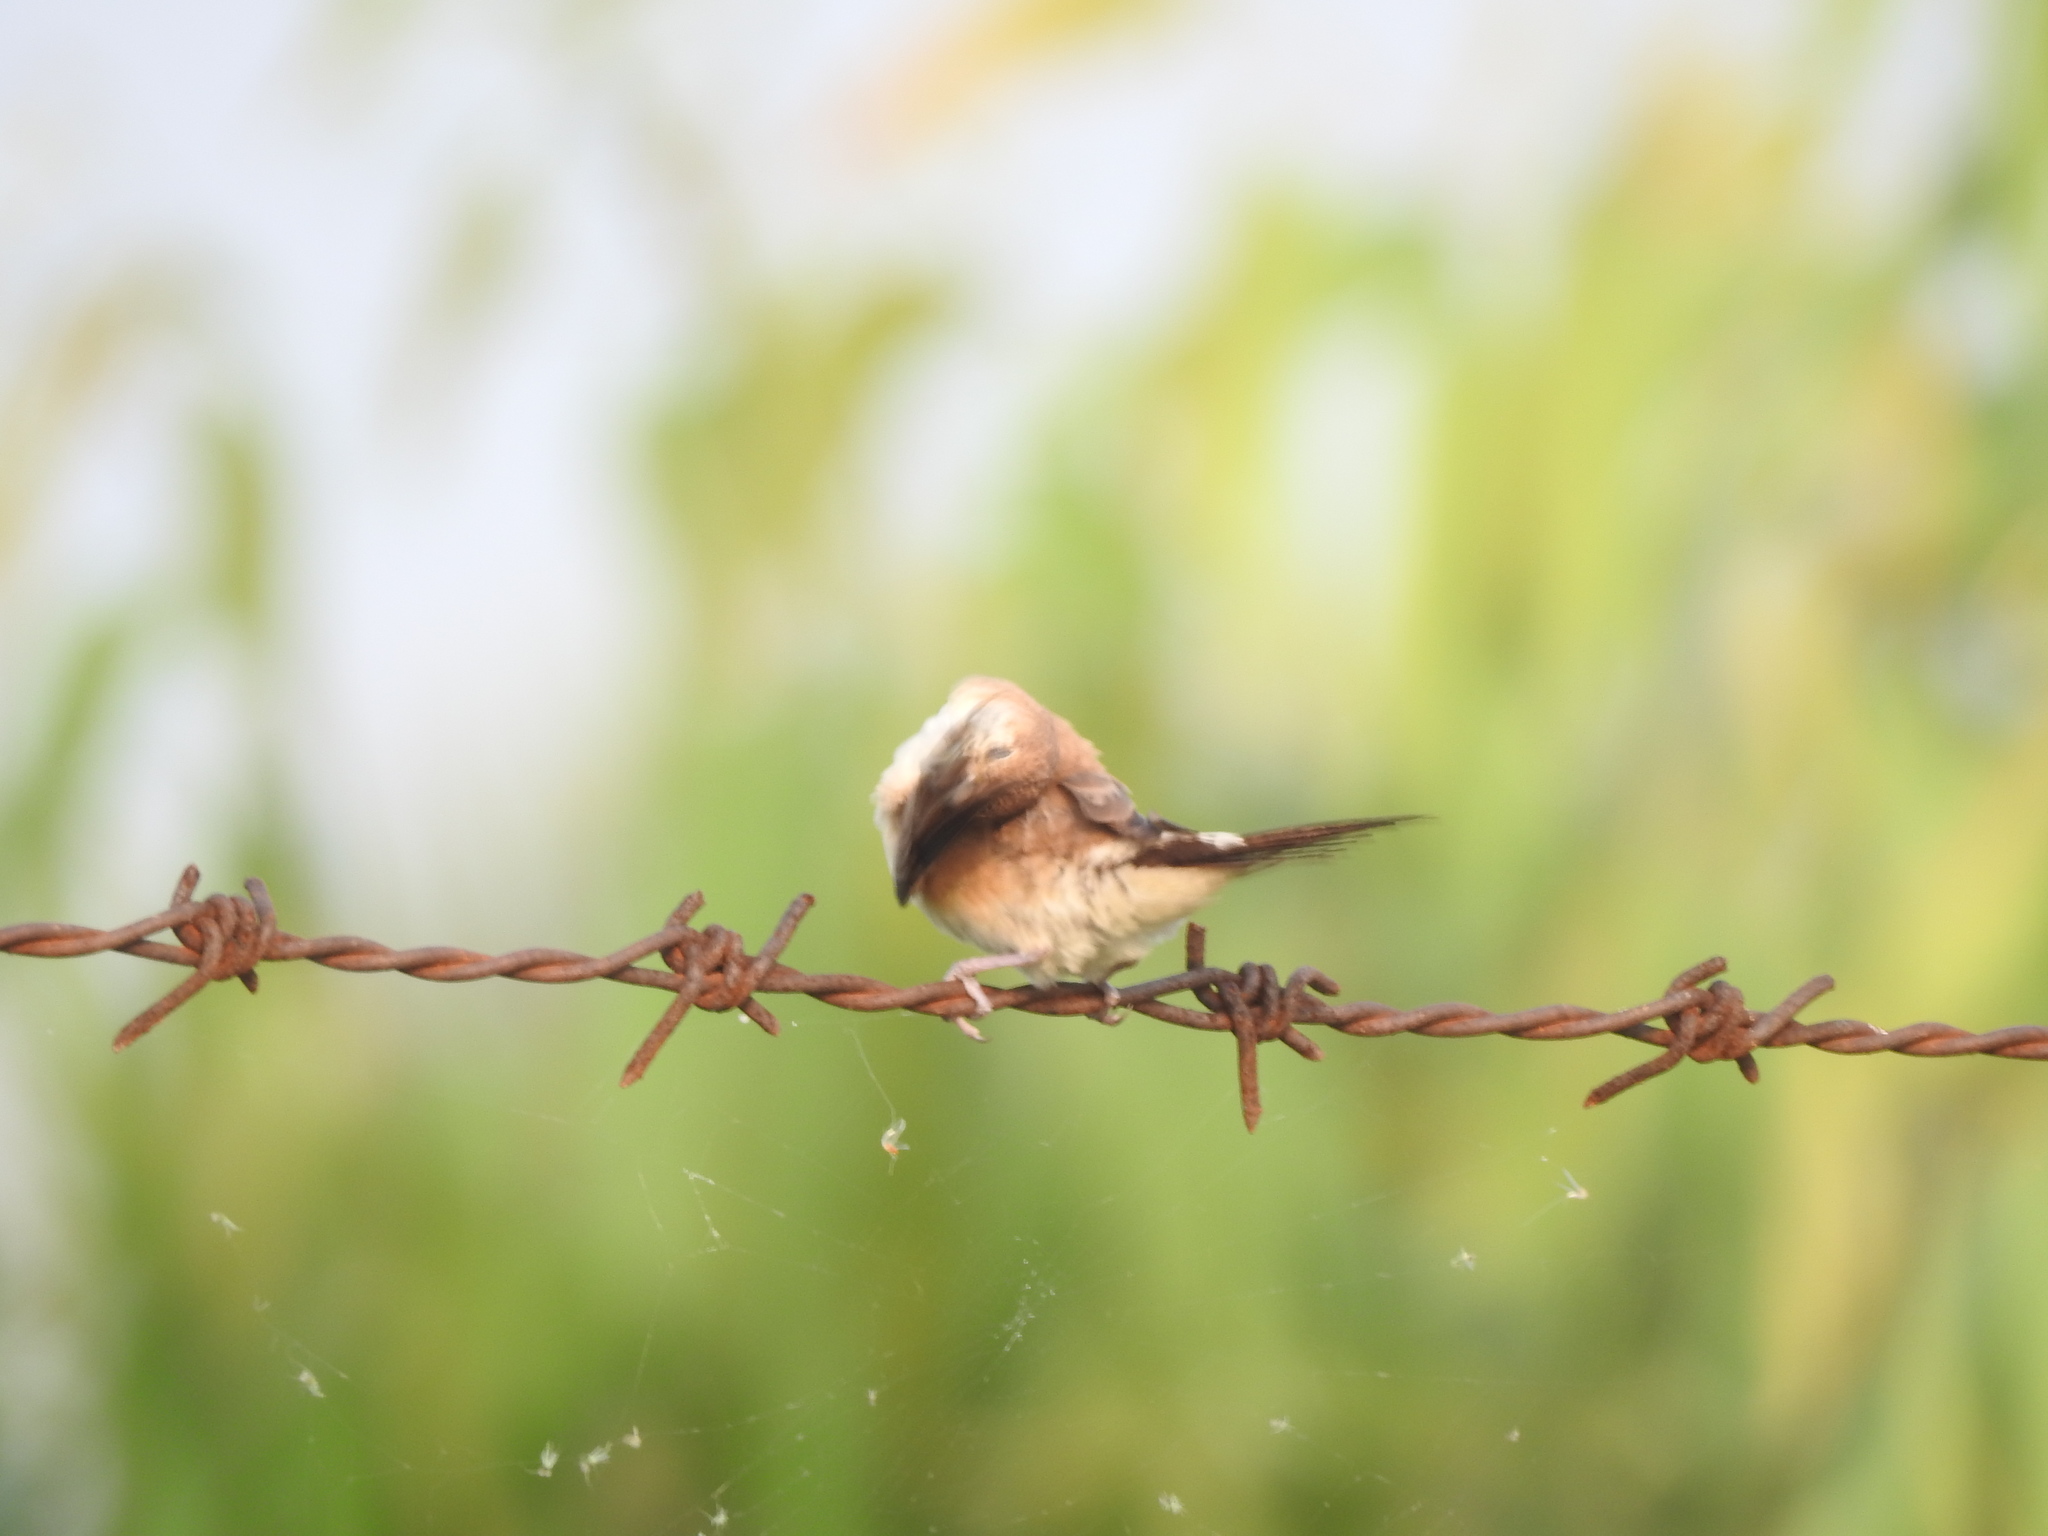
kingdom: Animalia
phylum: Chordata
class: Aves
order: Passeriformes
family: Estrildidae
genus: Euodice
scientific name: Euodice malabarica
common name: Indian silverbill
